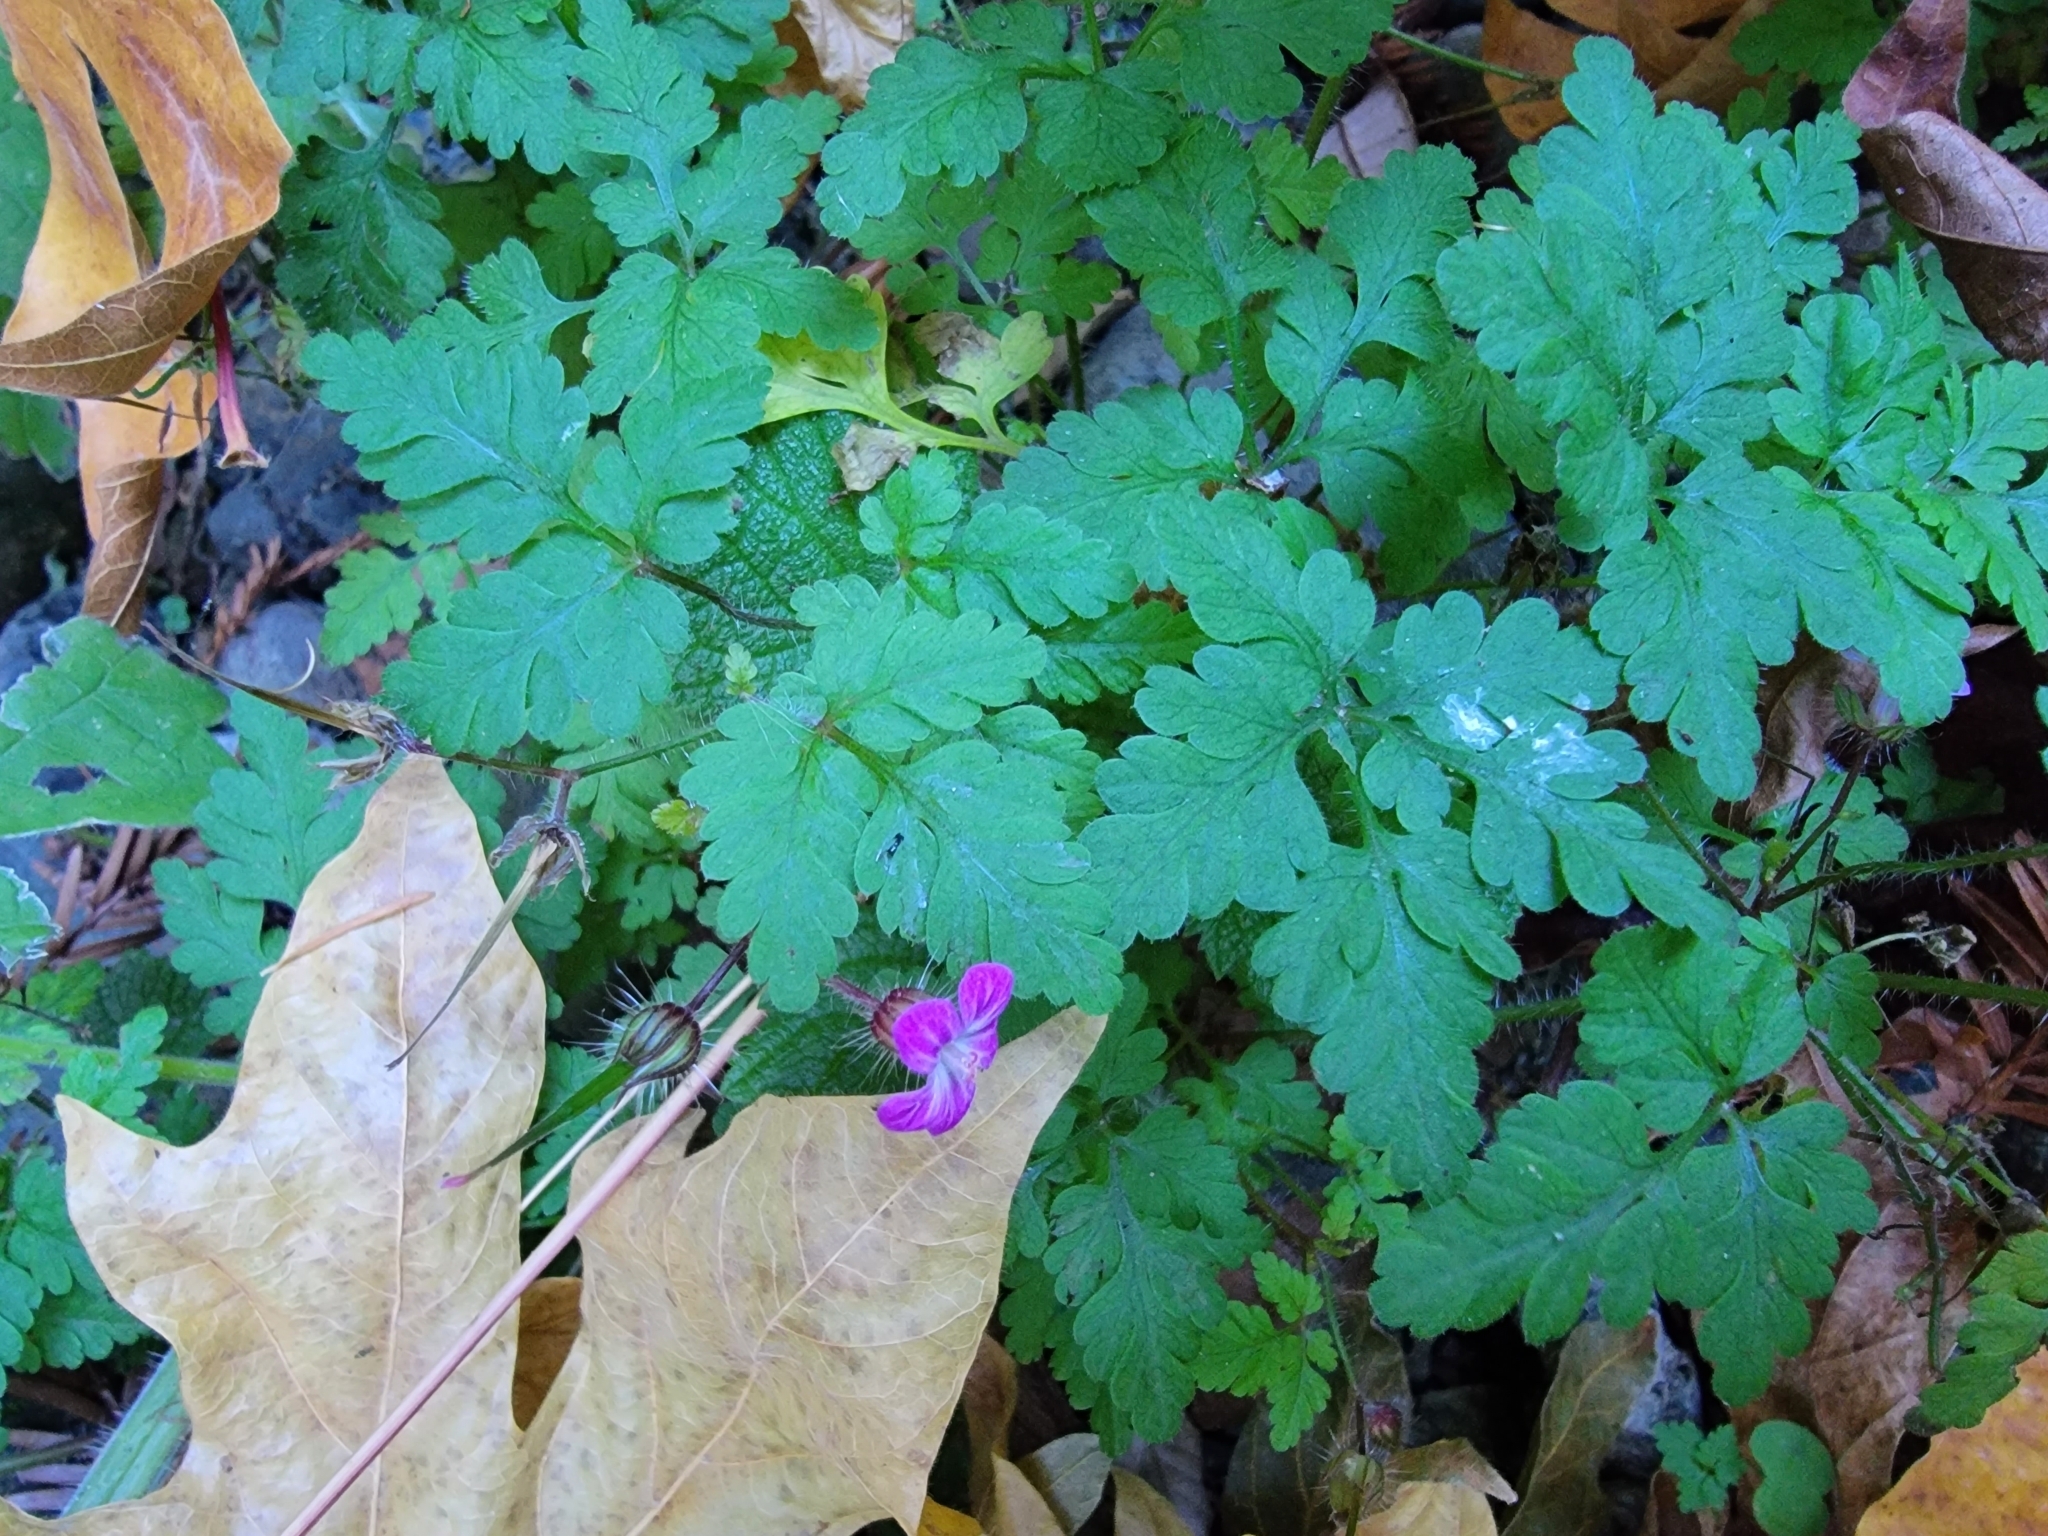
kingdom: Plantae
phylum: Tracheophyta
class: Magnoliopsida
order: Geraniales
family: Geraniaceae
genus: Geranium
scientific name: Geranium robertianum
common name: Herb-robert
